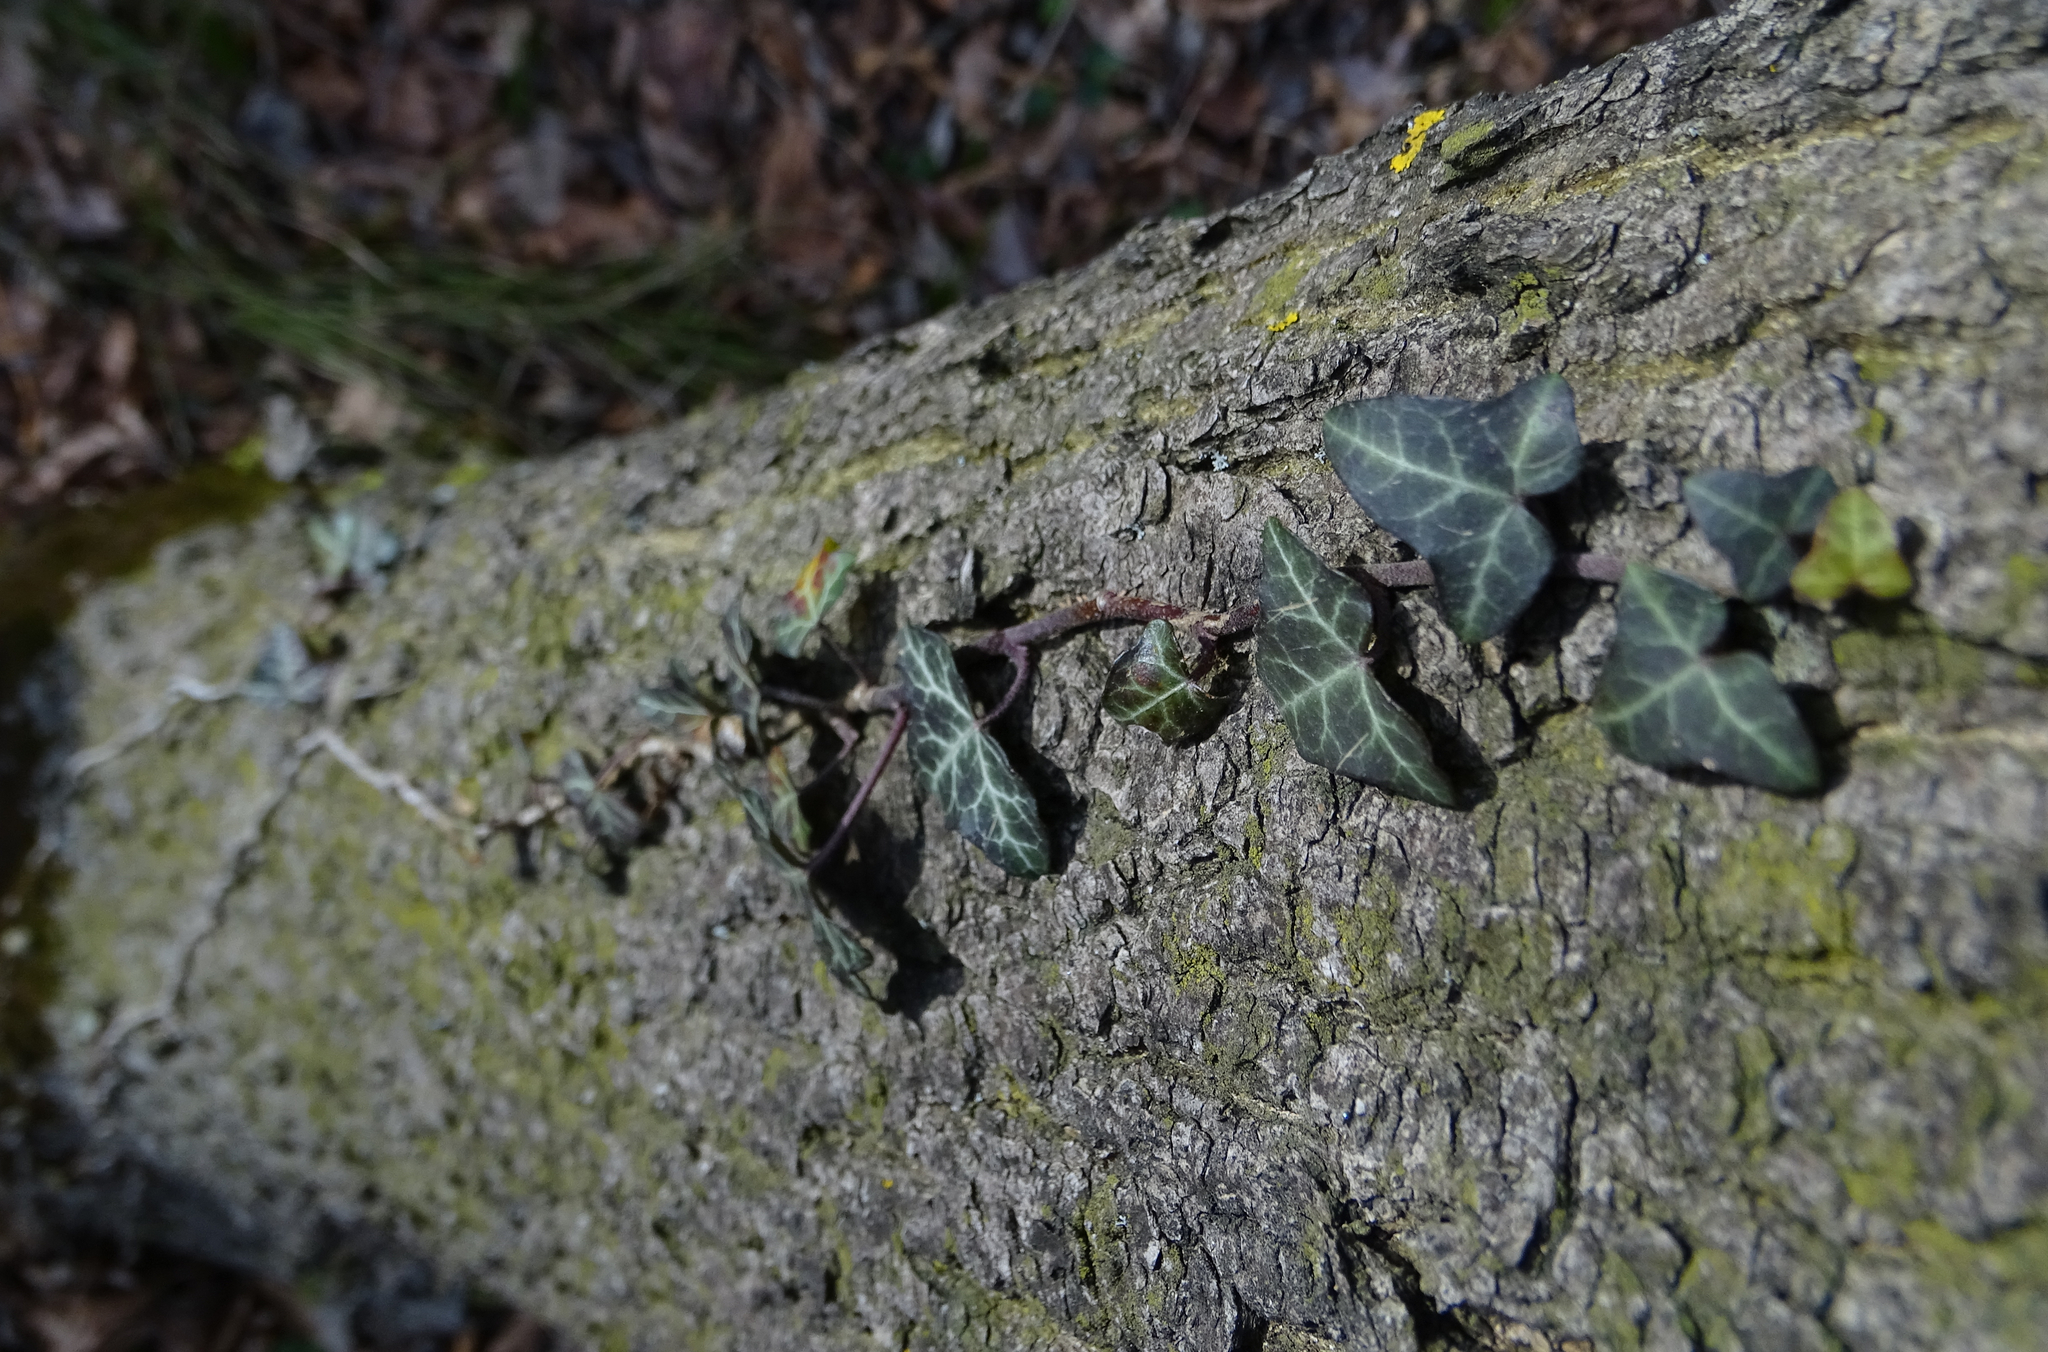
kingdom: Plantae
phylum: Tracheophyta
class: Magnoliopsida
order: Apiales
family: Araliaceae
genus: Hedera
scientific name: Hedera helix
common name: Ivy
